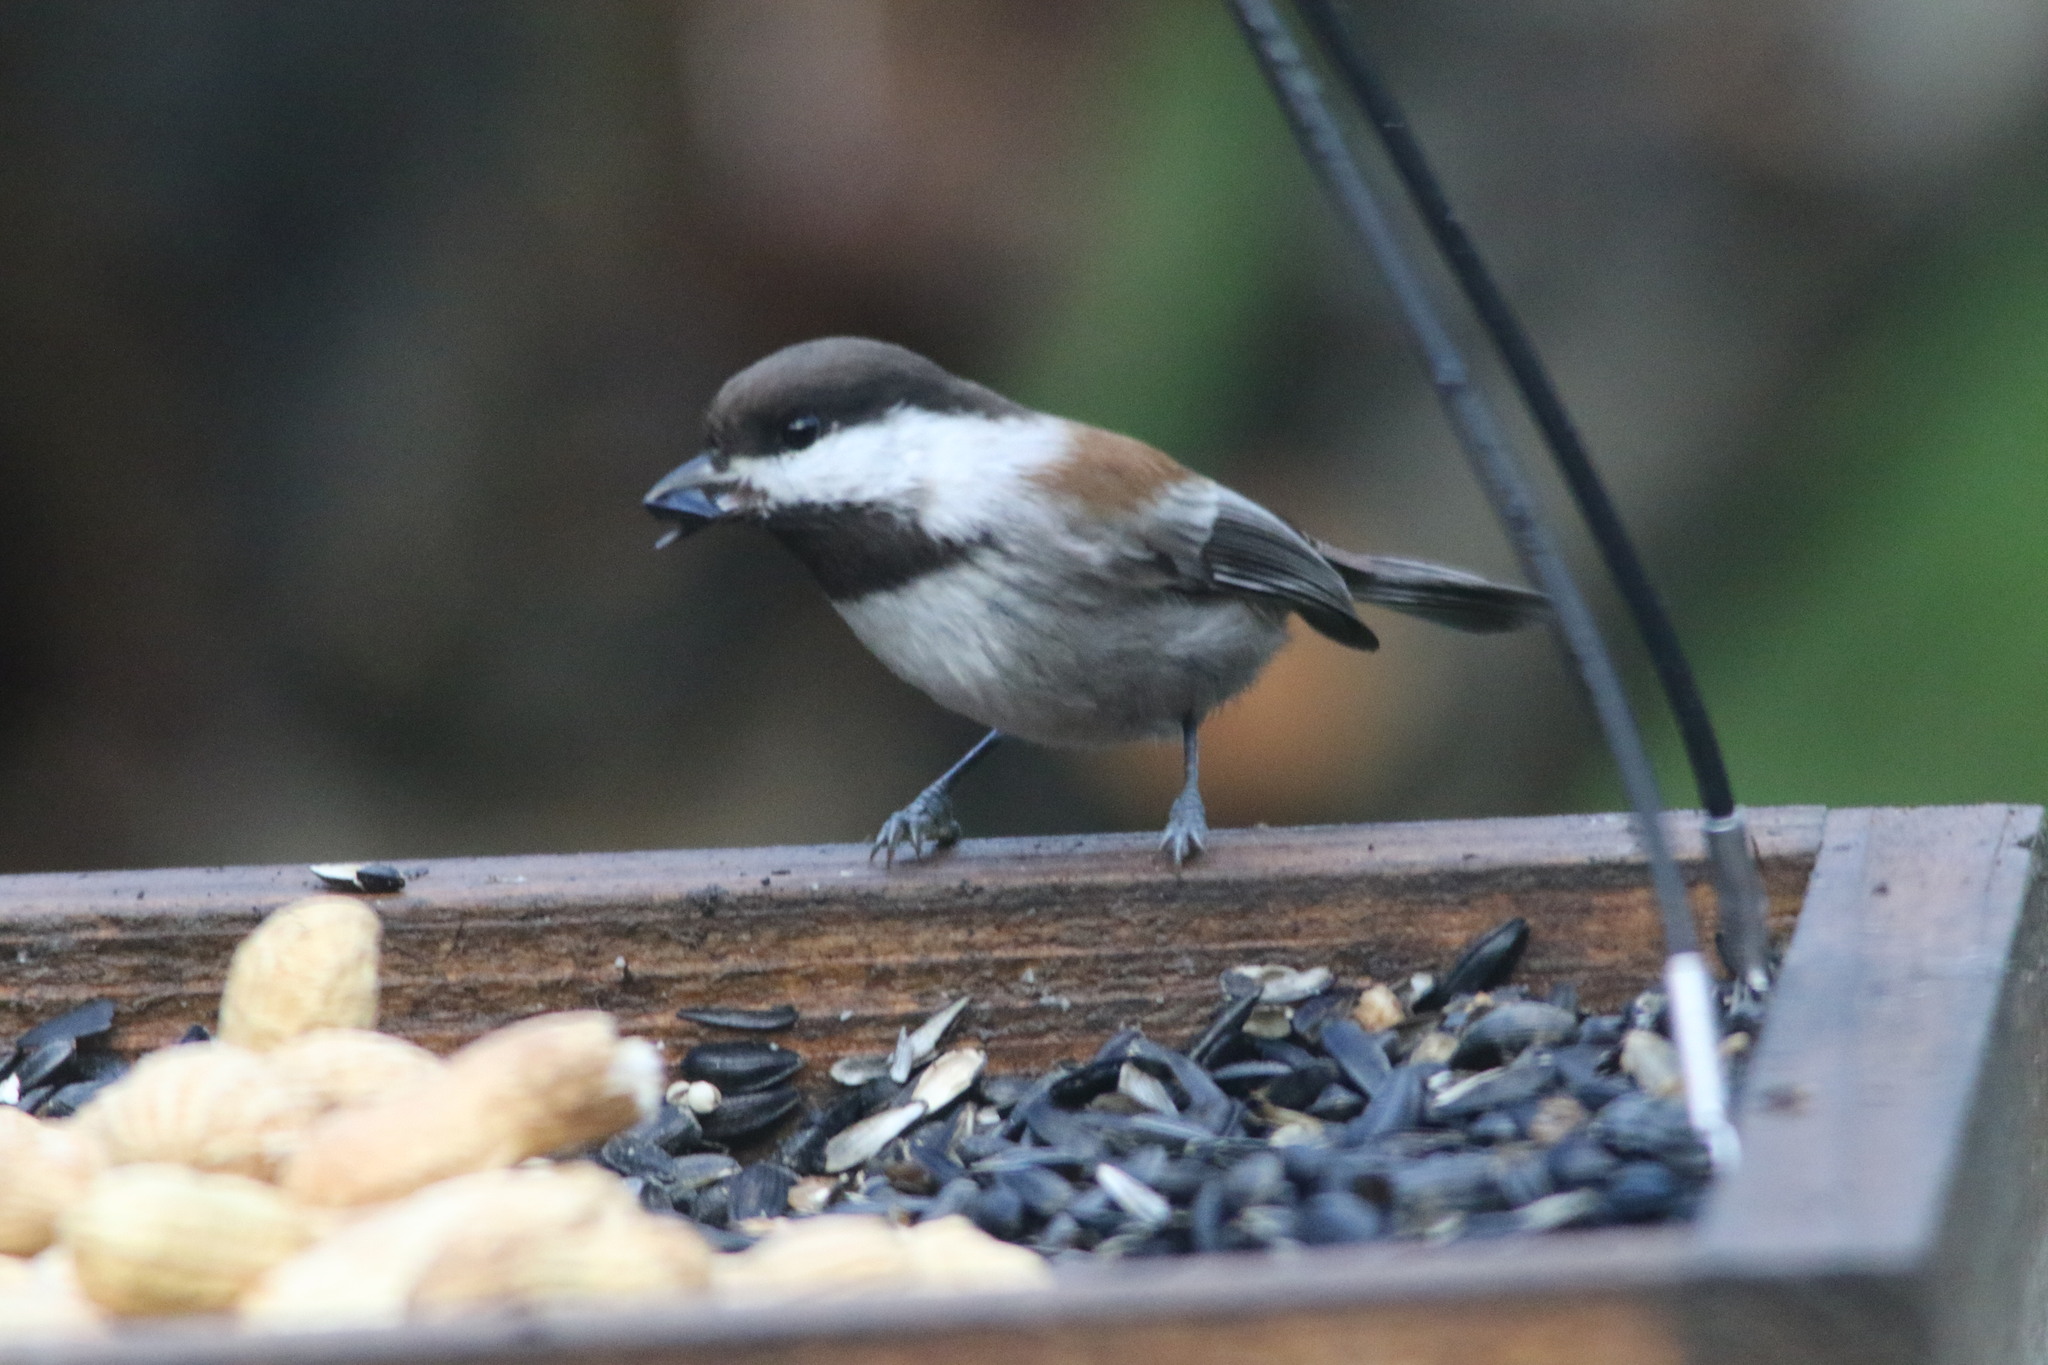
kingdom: Animalia
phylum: Chordata
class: Aves
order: Passeriformes
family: Paridae
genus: Poecile
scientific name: Poecile rufescens
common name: Chestnut-backed chickadee
